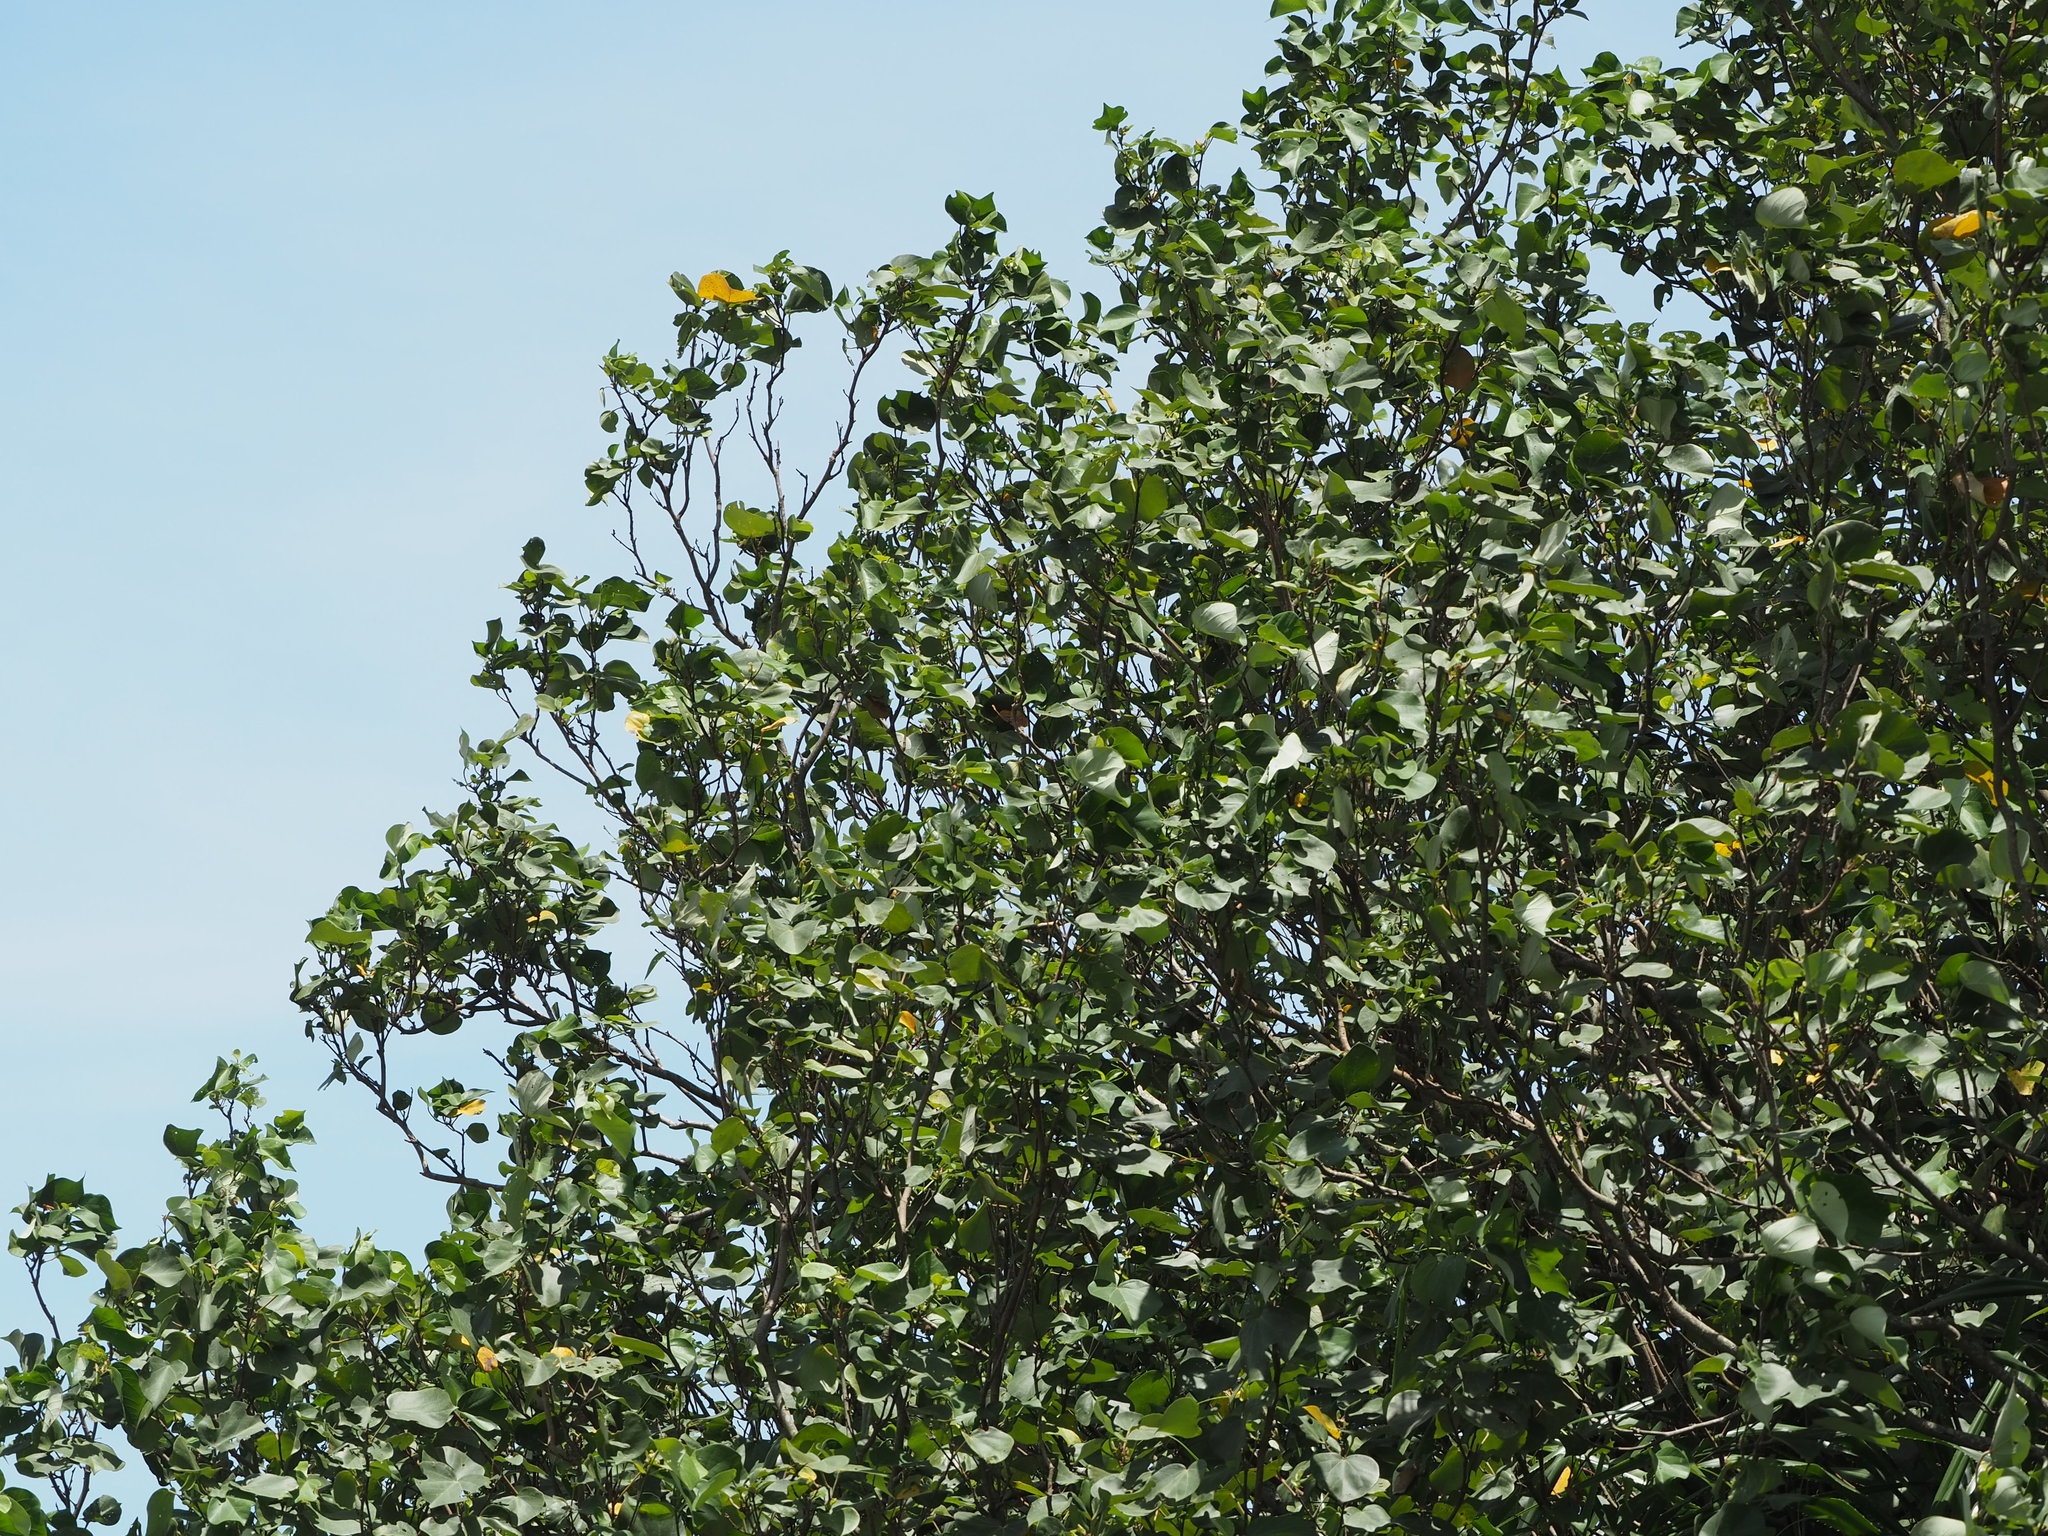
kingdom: Plantae
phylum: Tracheophyta
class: Magnoliopsida
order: Malvales
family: Malvaceae
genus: Talipariti
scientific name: Talipariti tiliaceum
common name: Sea hibiscus
